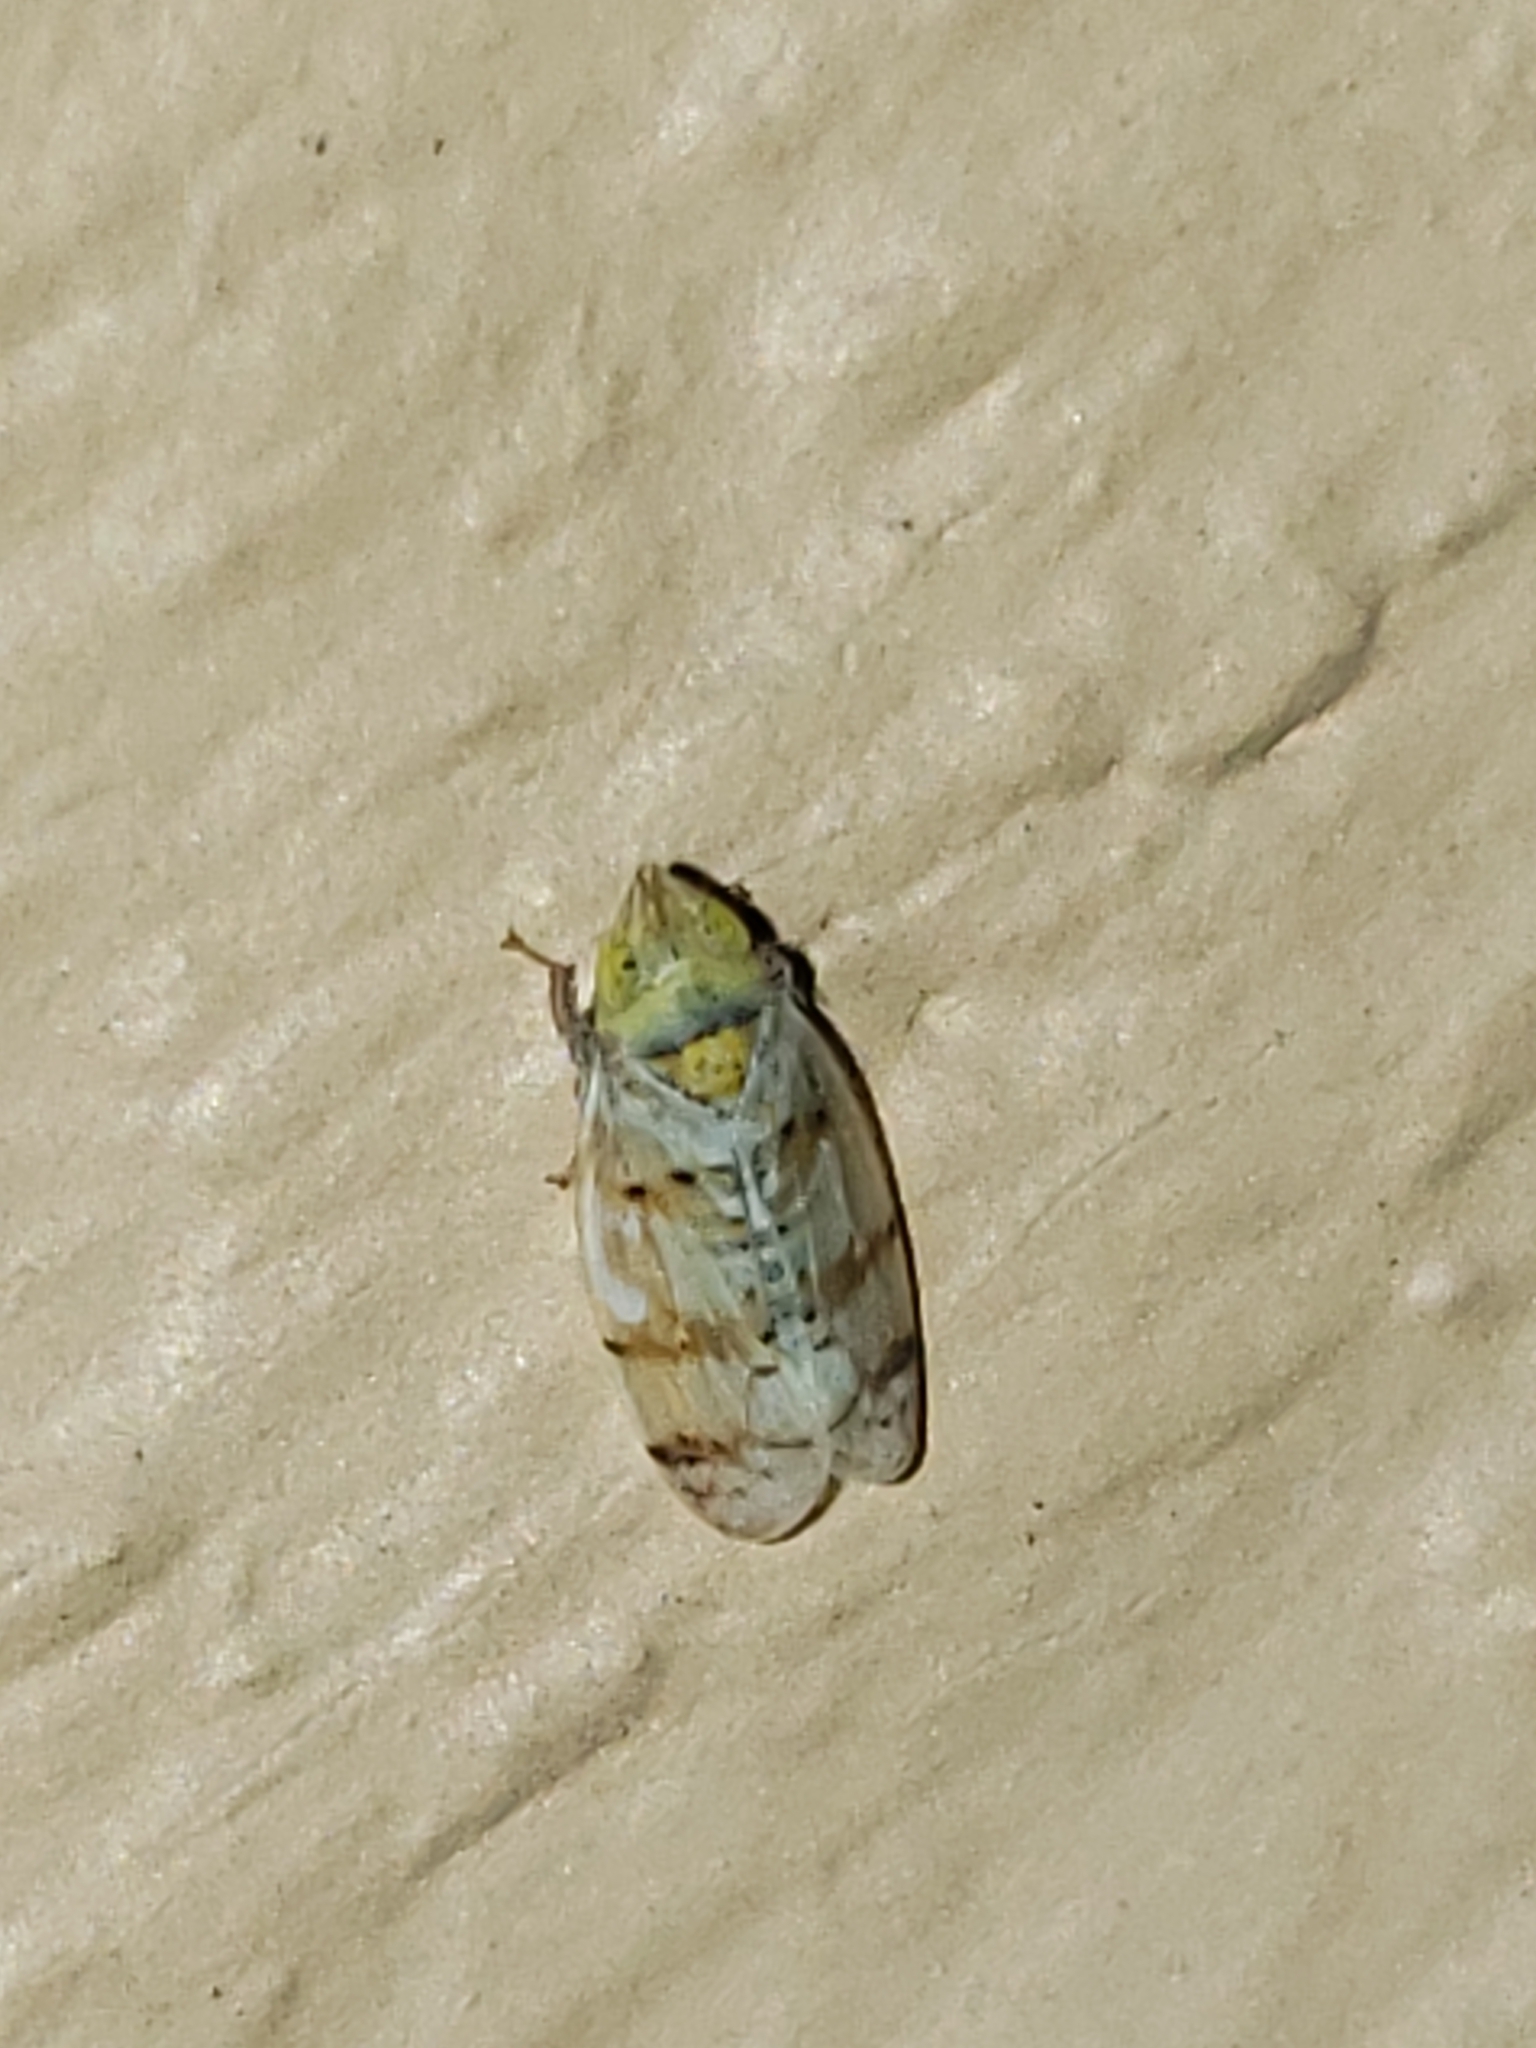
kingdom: Animalia
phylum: Arthropoda
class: Insecta
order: Hemiptera
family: Cicadellidae
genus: Japananus
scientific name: Japananus hyalinus
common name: The japanese maple leafhopper
